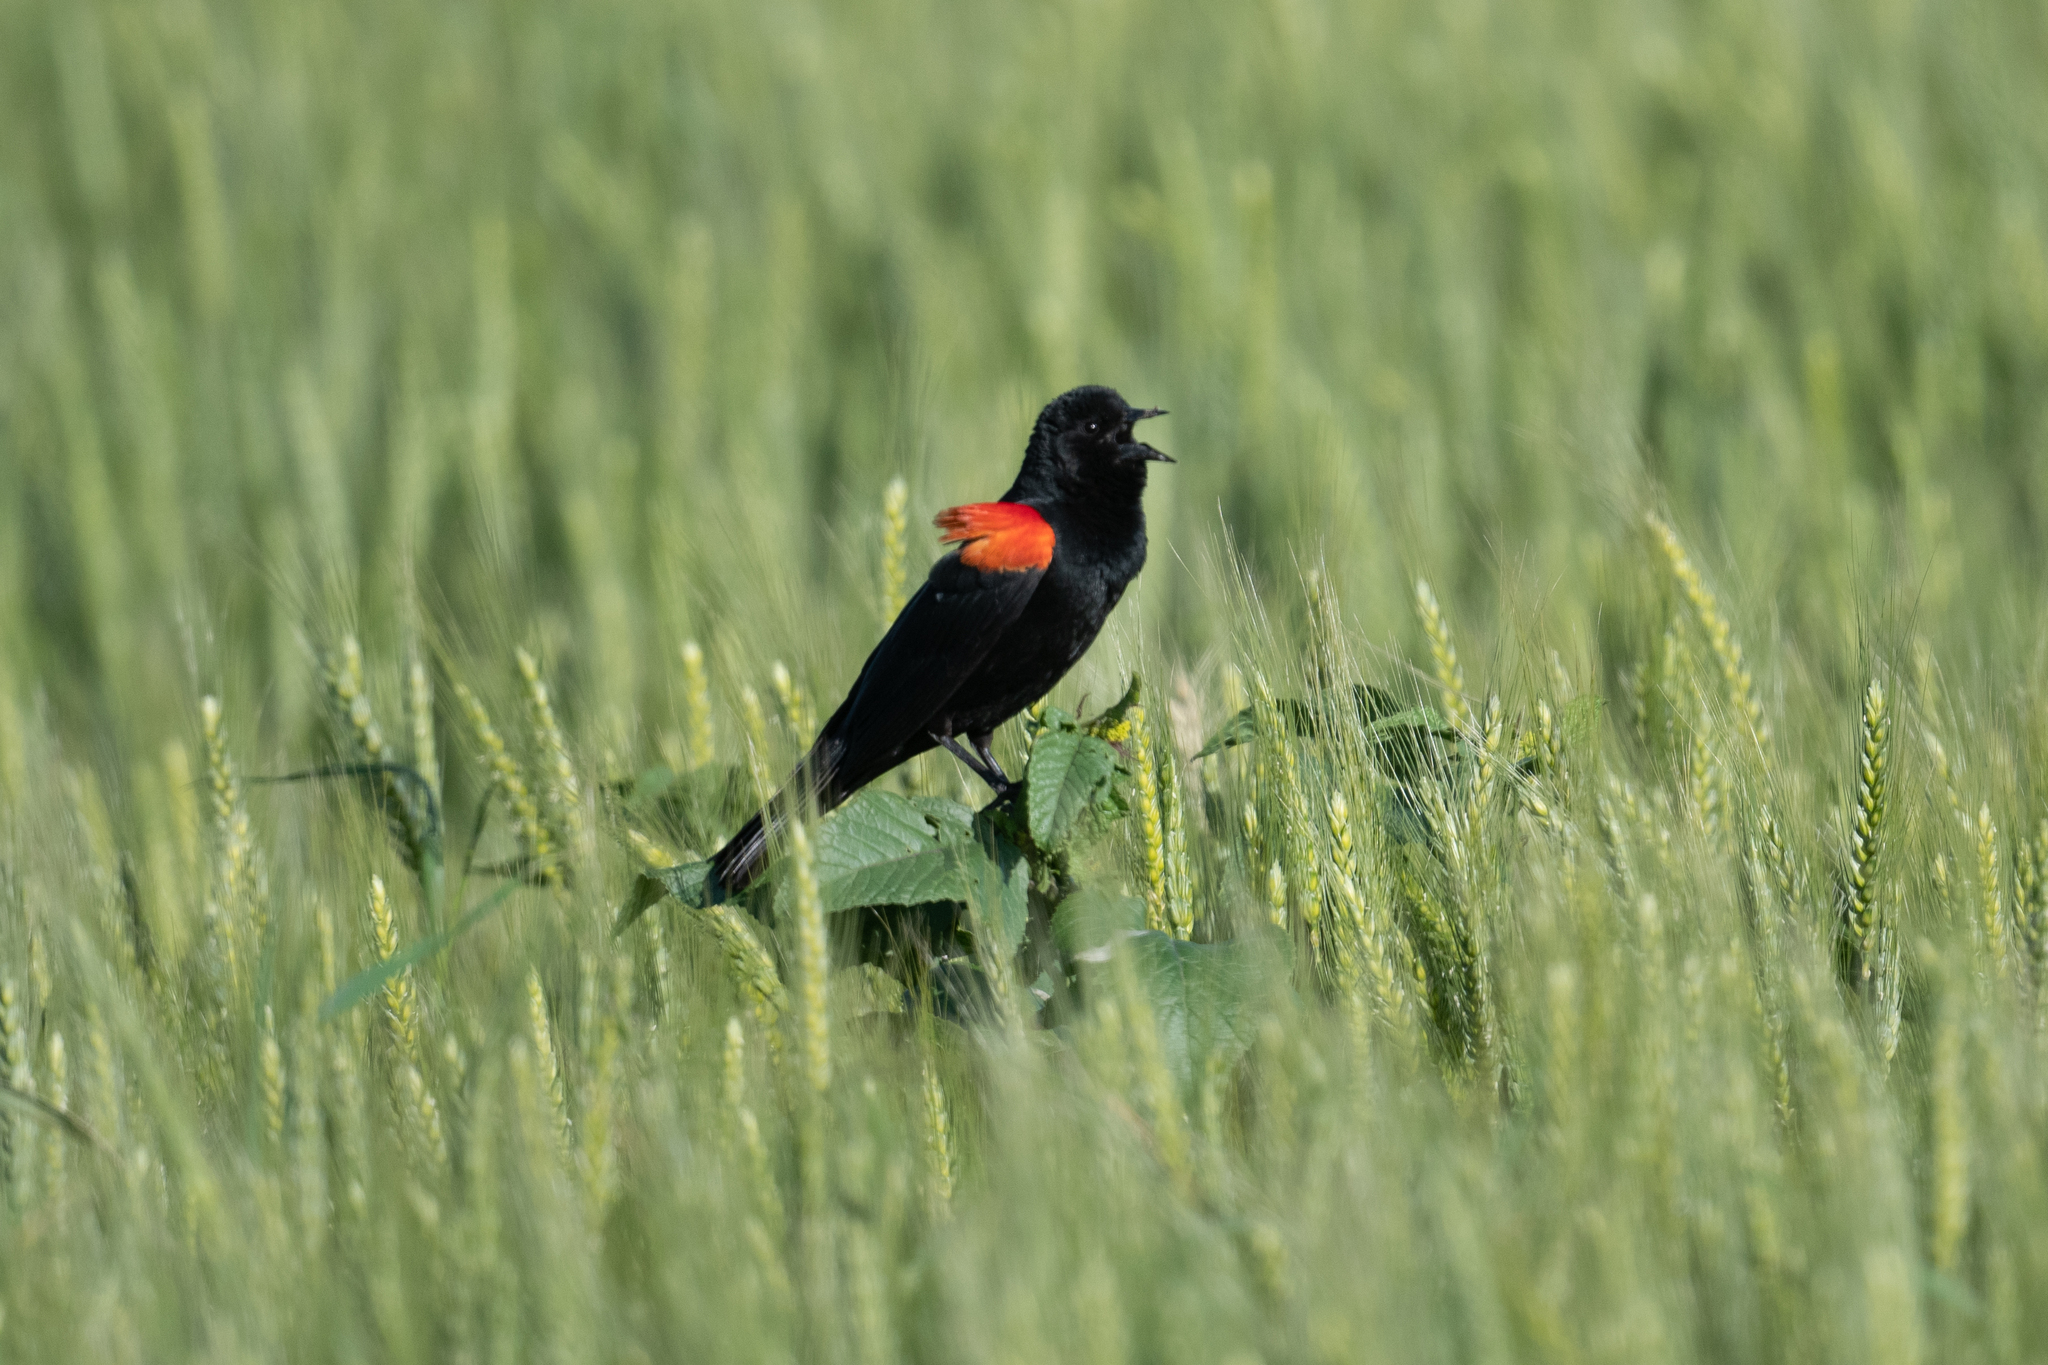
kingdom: Animalia
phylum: Chordata
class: Aves
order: Passeriformes
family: Icteridae
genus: Agelaius
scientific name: Agelaius phoeniceus
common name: Red-winged blackbird
